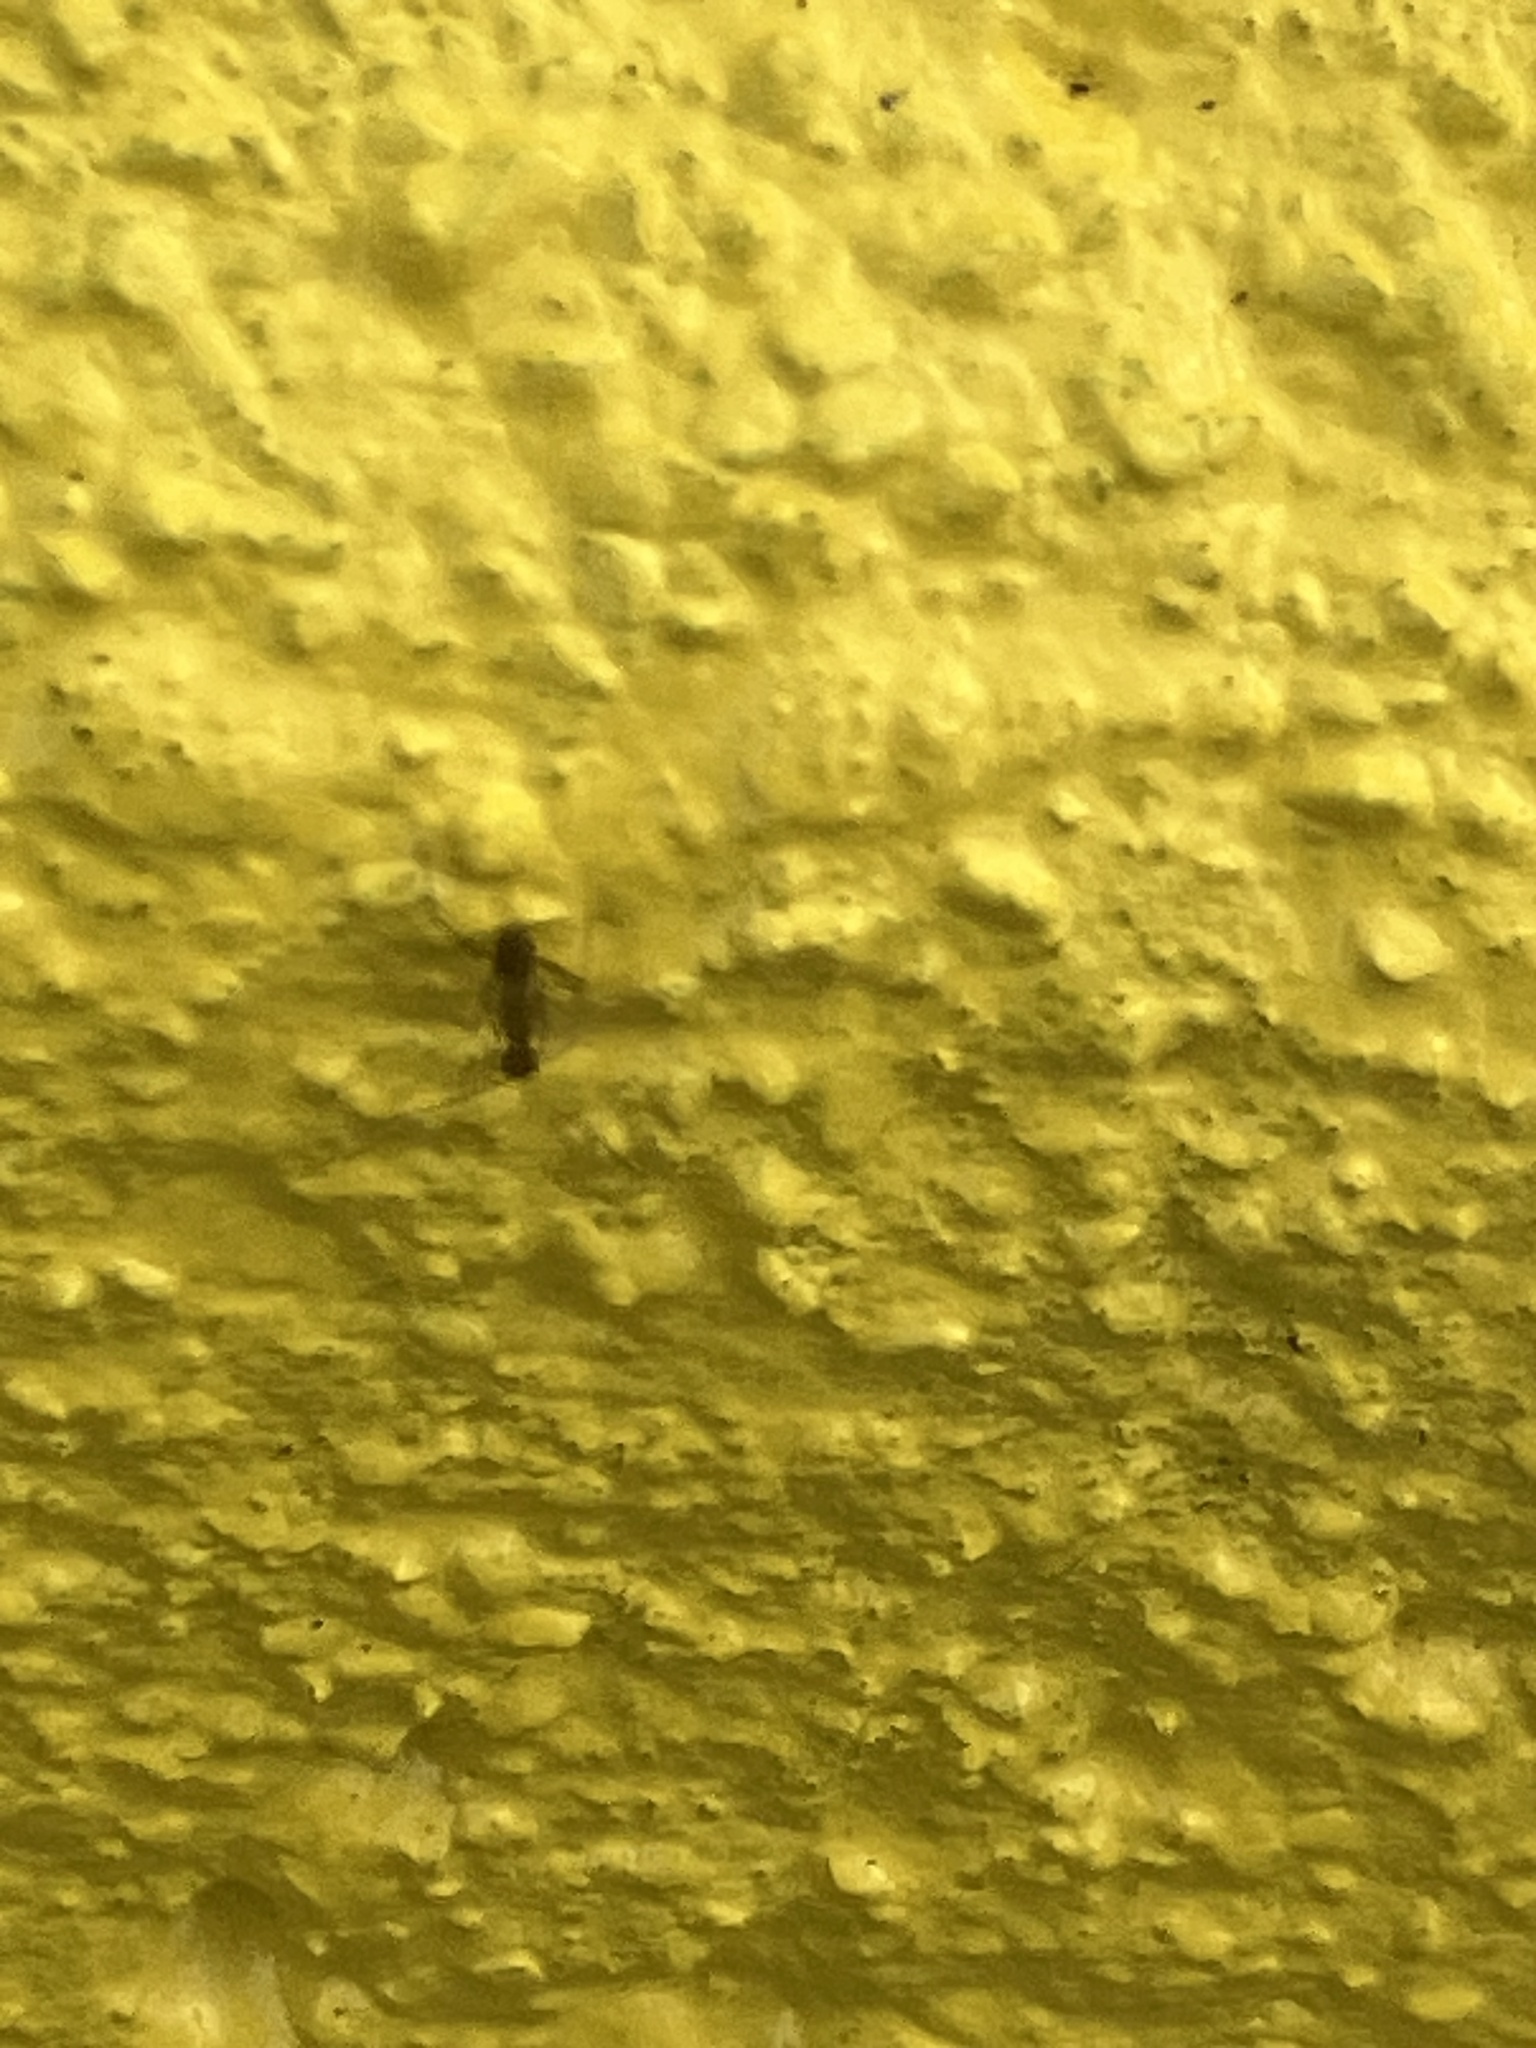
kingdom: Animalia
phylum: Arthropoda
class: Insecta
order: Hymenoptera
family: Formicidae
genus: Paratrechina
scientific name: Paratrechina longicornis
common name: Longhorned crazy ant
